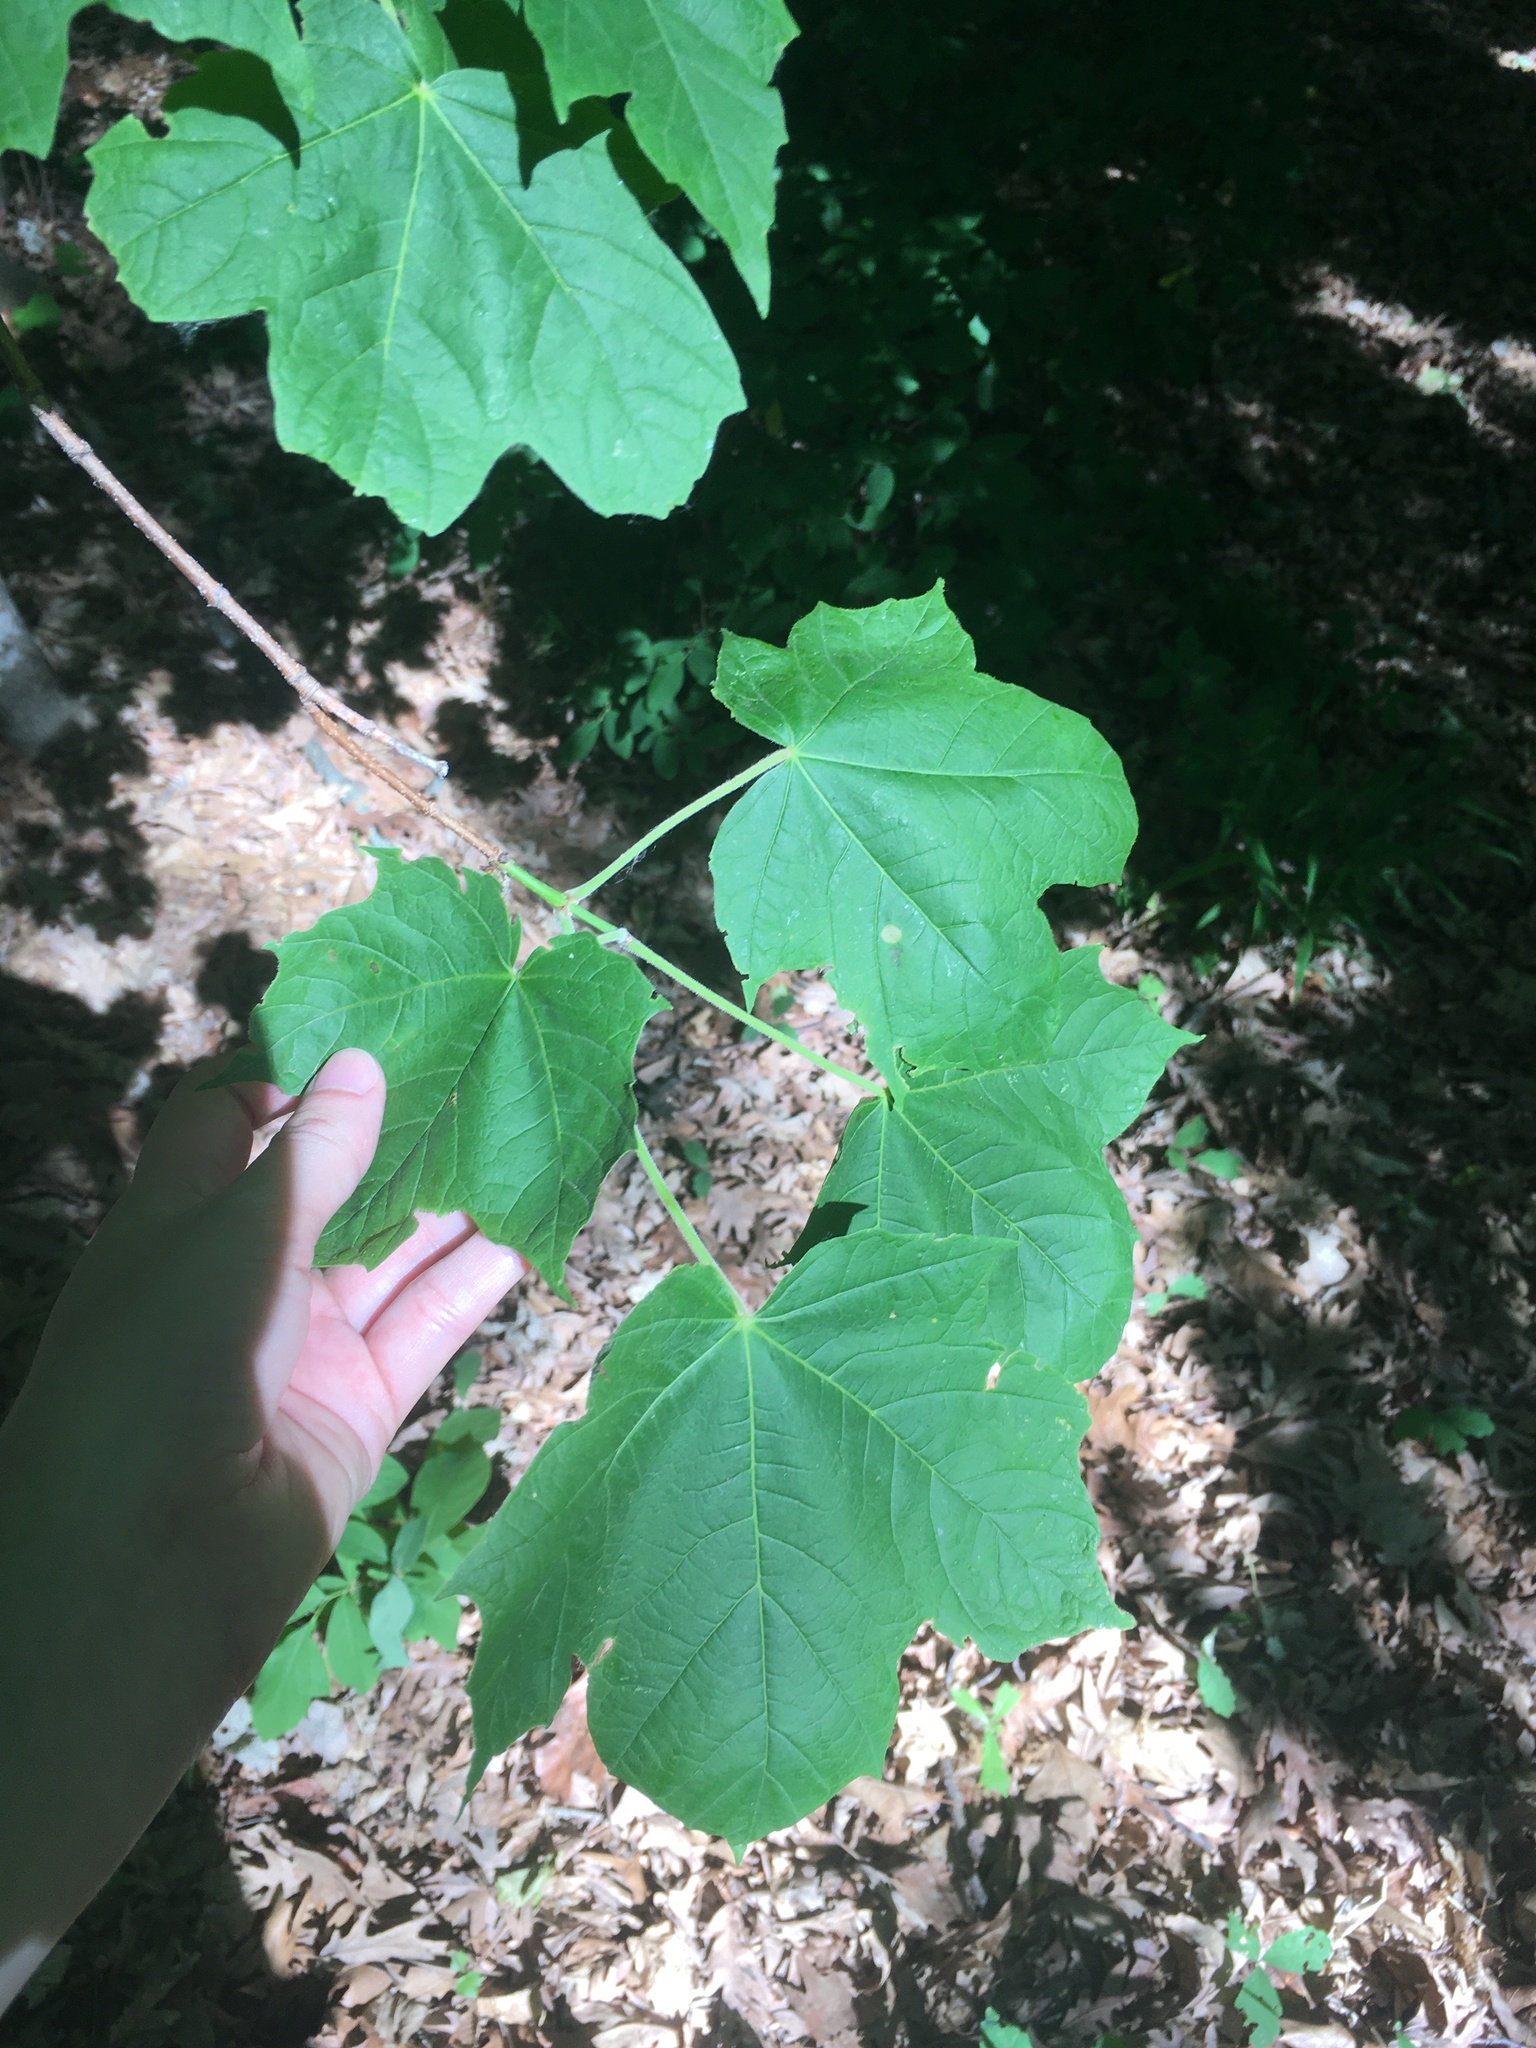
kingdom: Plantae
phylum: Tracheophyta
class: Magnoliopsida
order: Sapindales
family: Sapindaceae
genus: Acer
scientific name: Acer saccharum
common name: Sugar maple
